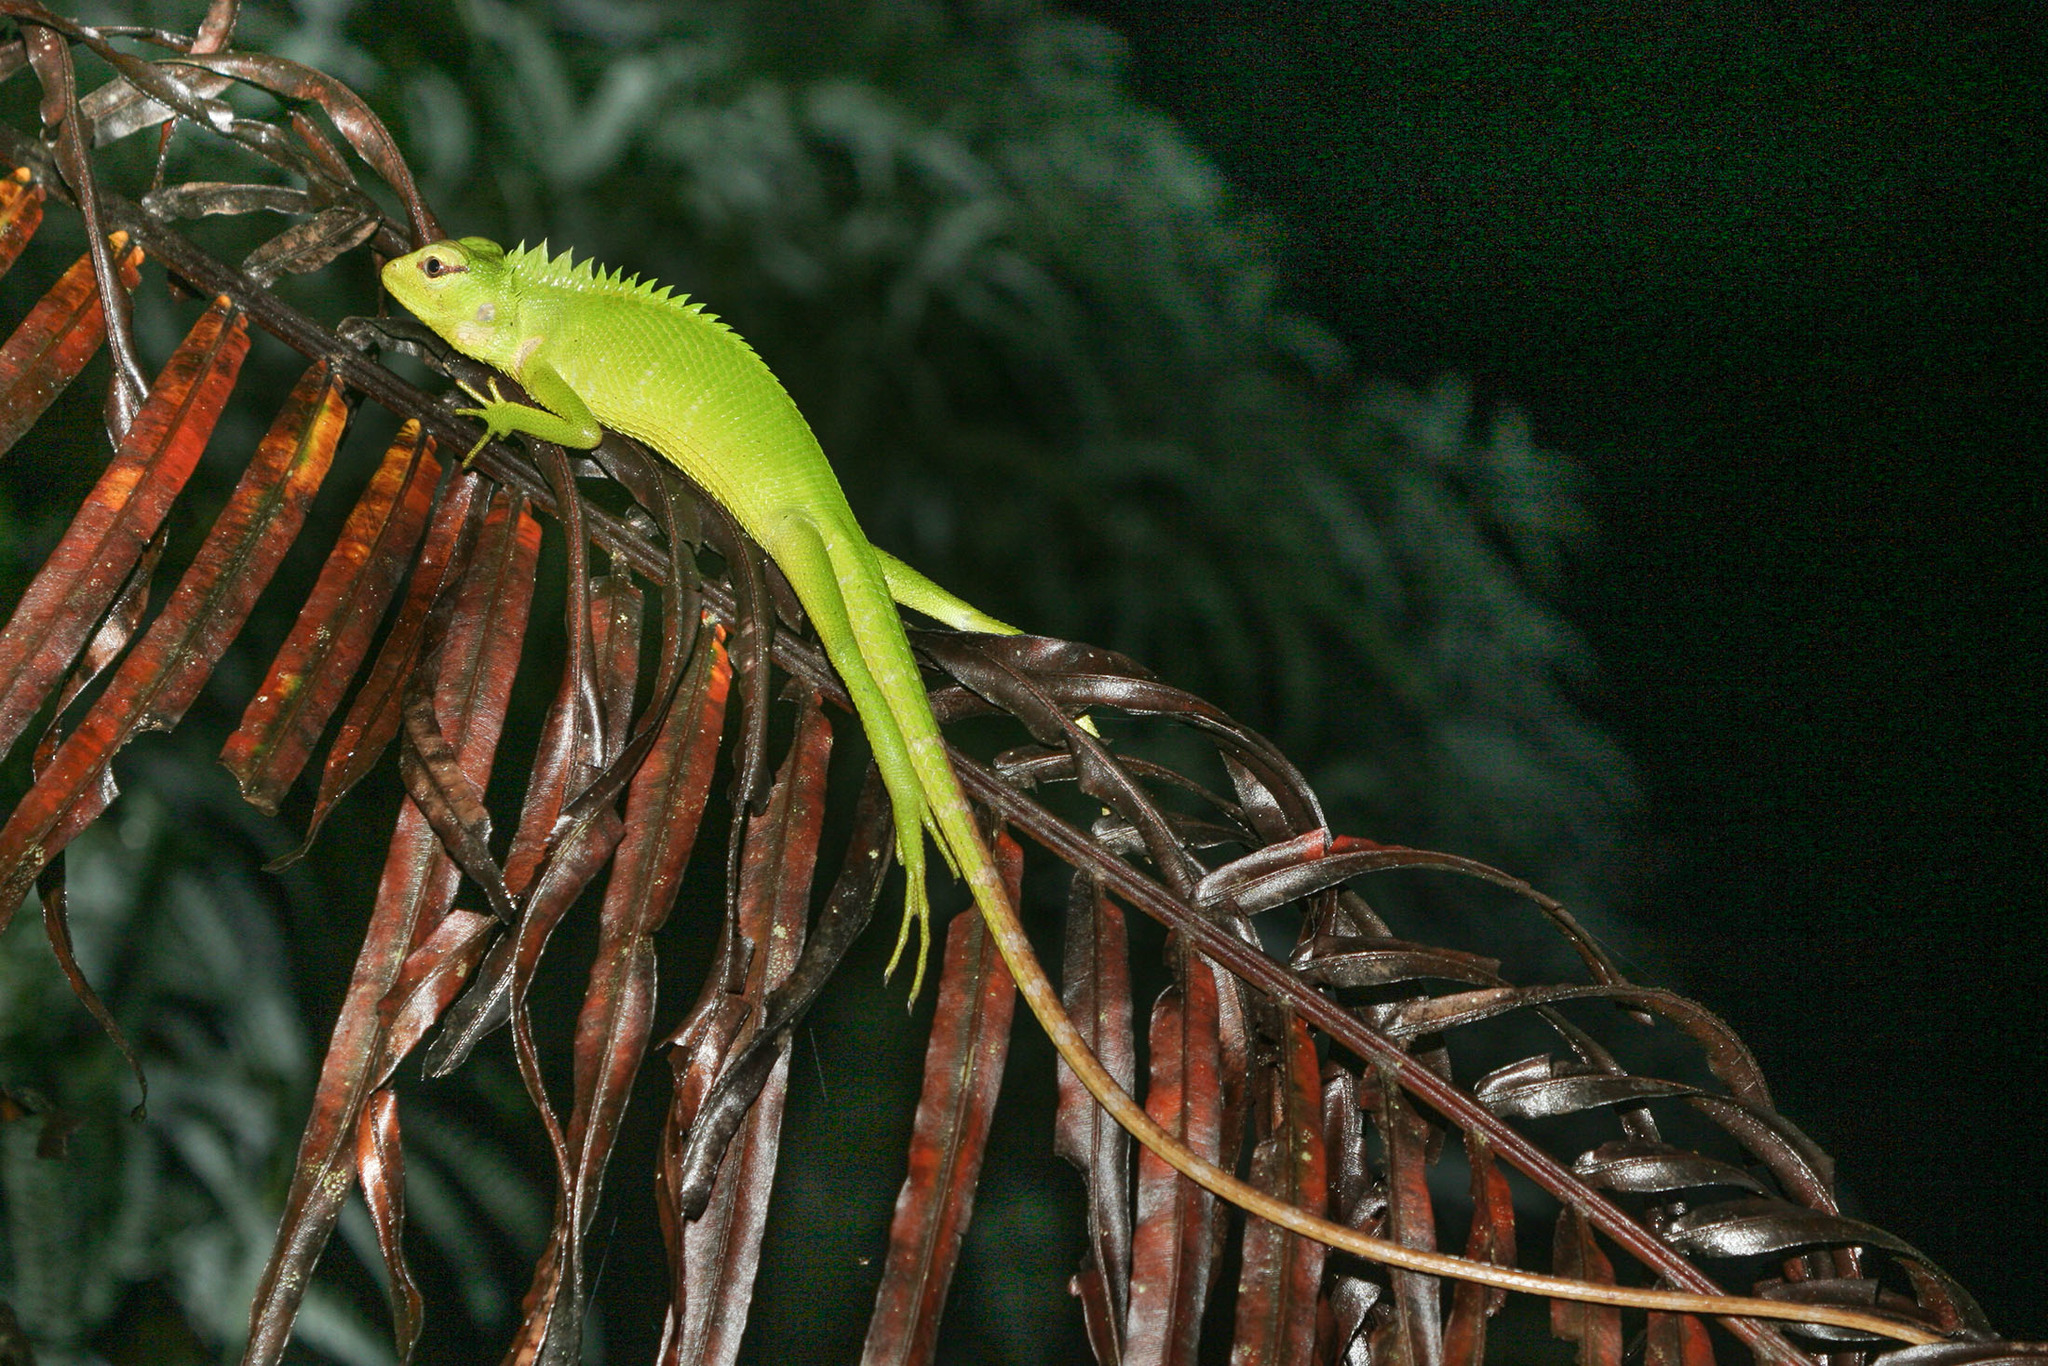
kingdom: Animalia
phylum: Chordata
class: Squamata
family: Agamidae
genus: Calotes
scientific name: Calotes calotes
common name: Common green forest lizard
